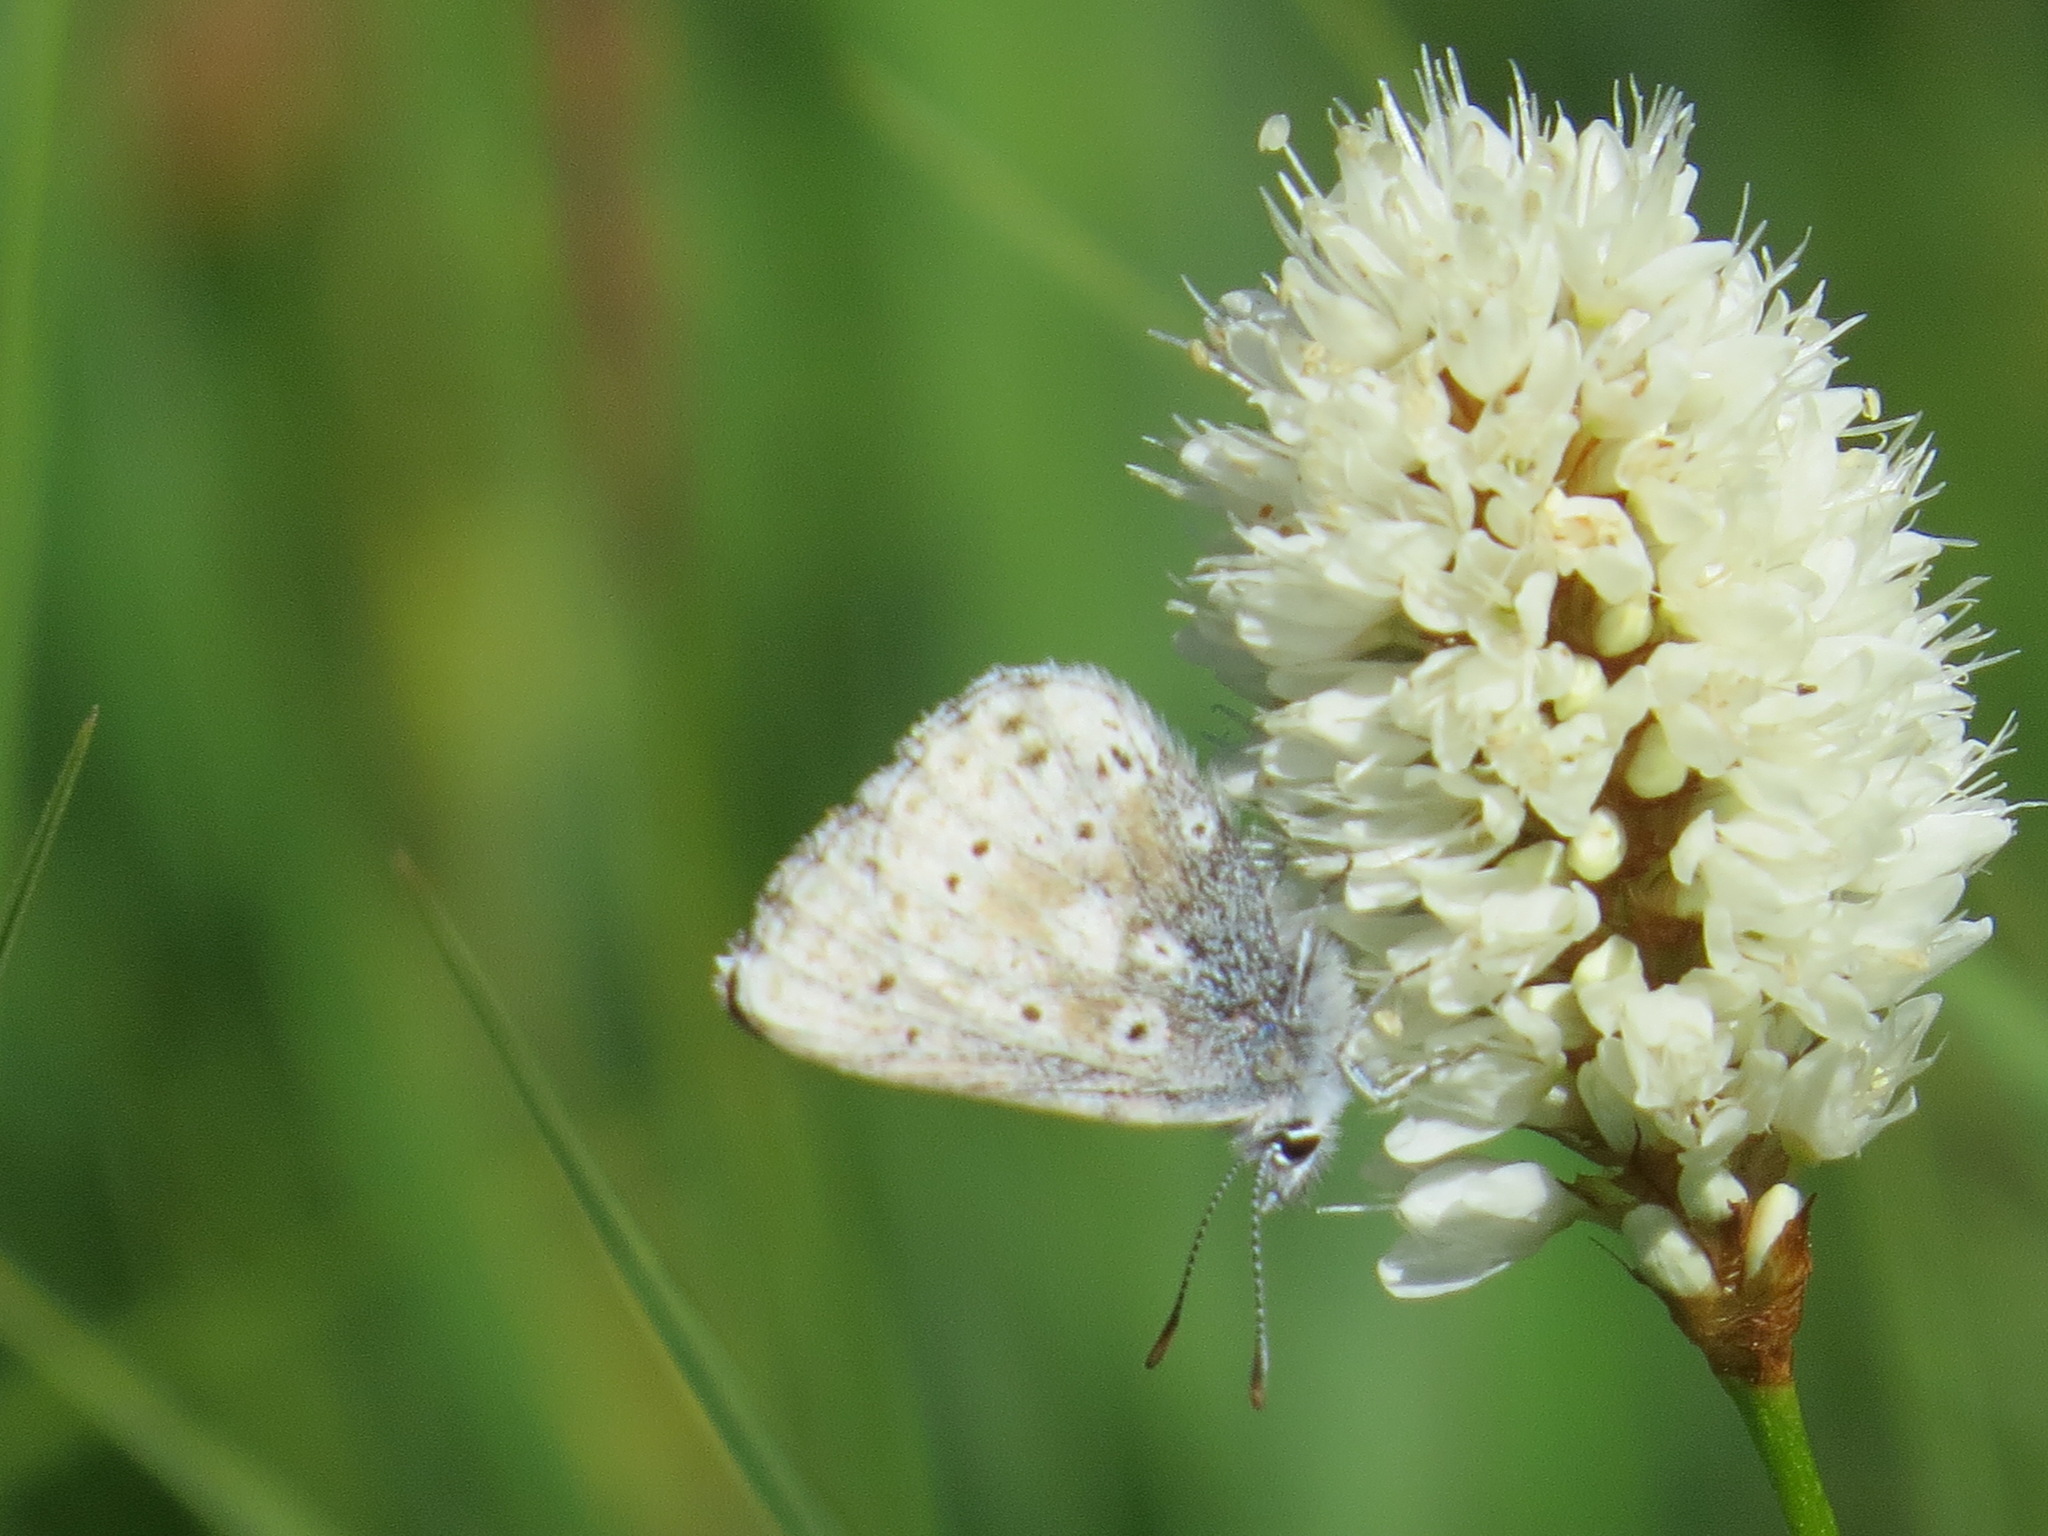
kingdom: Animalia
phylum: Arthropoda
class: Insecta
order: Lepidoptera
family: Lycaenidae
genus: Agriades
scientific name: Agriades podarce
